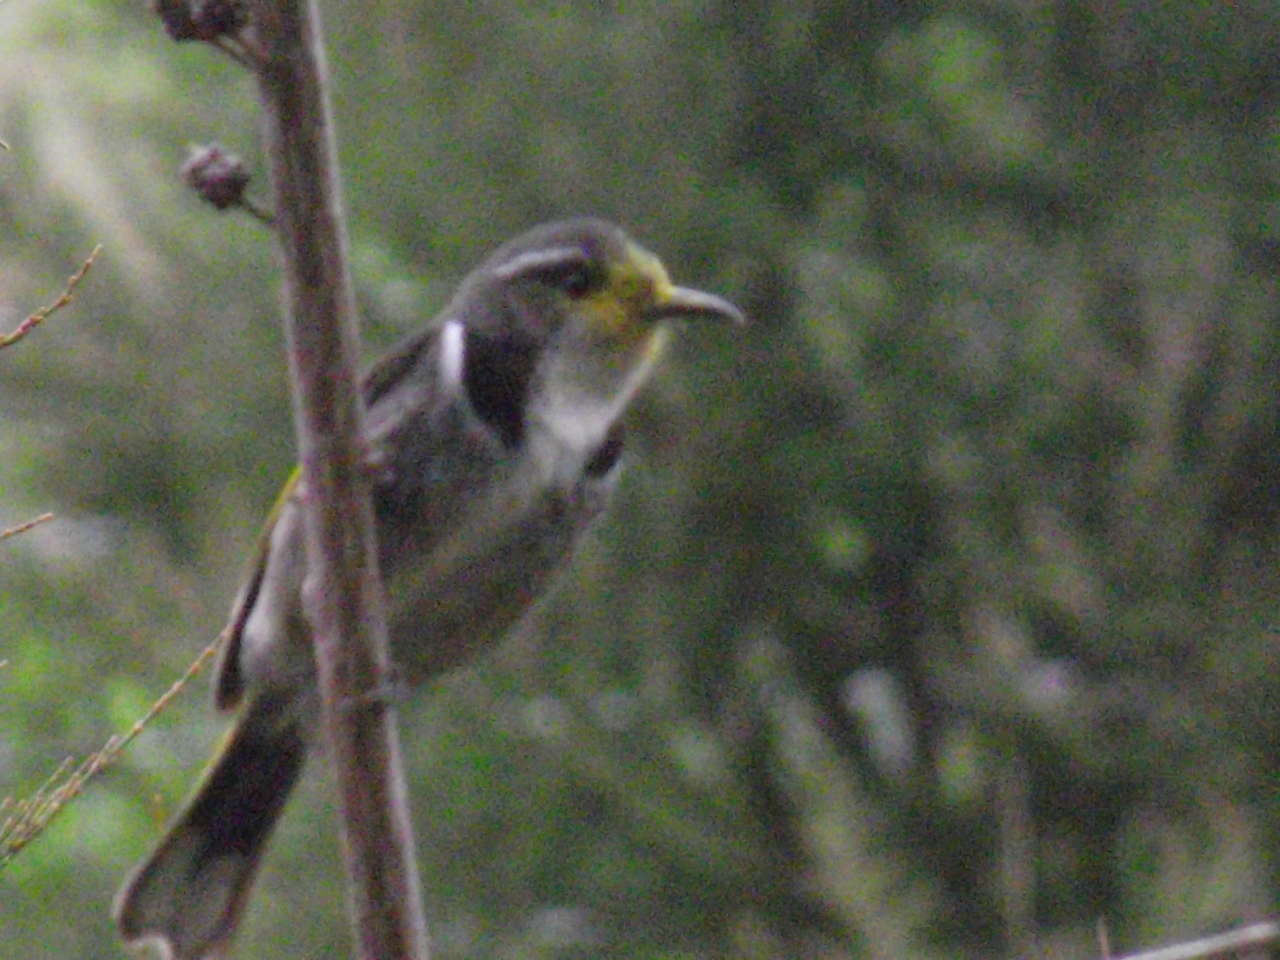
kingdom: Animalia
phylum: Chordata
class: Aves
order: Passeriformes
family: Meliphagidae
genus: Phylidonyris
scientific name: Phylidonyris pyrrhopterus
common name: Crescent honeyeater
